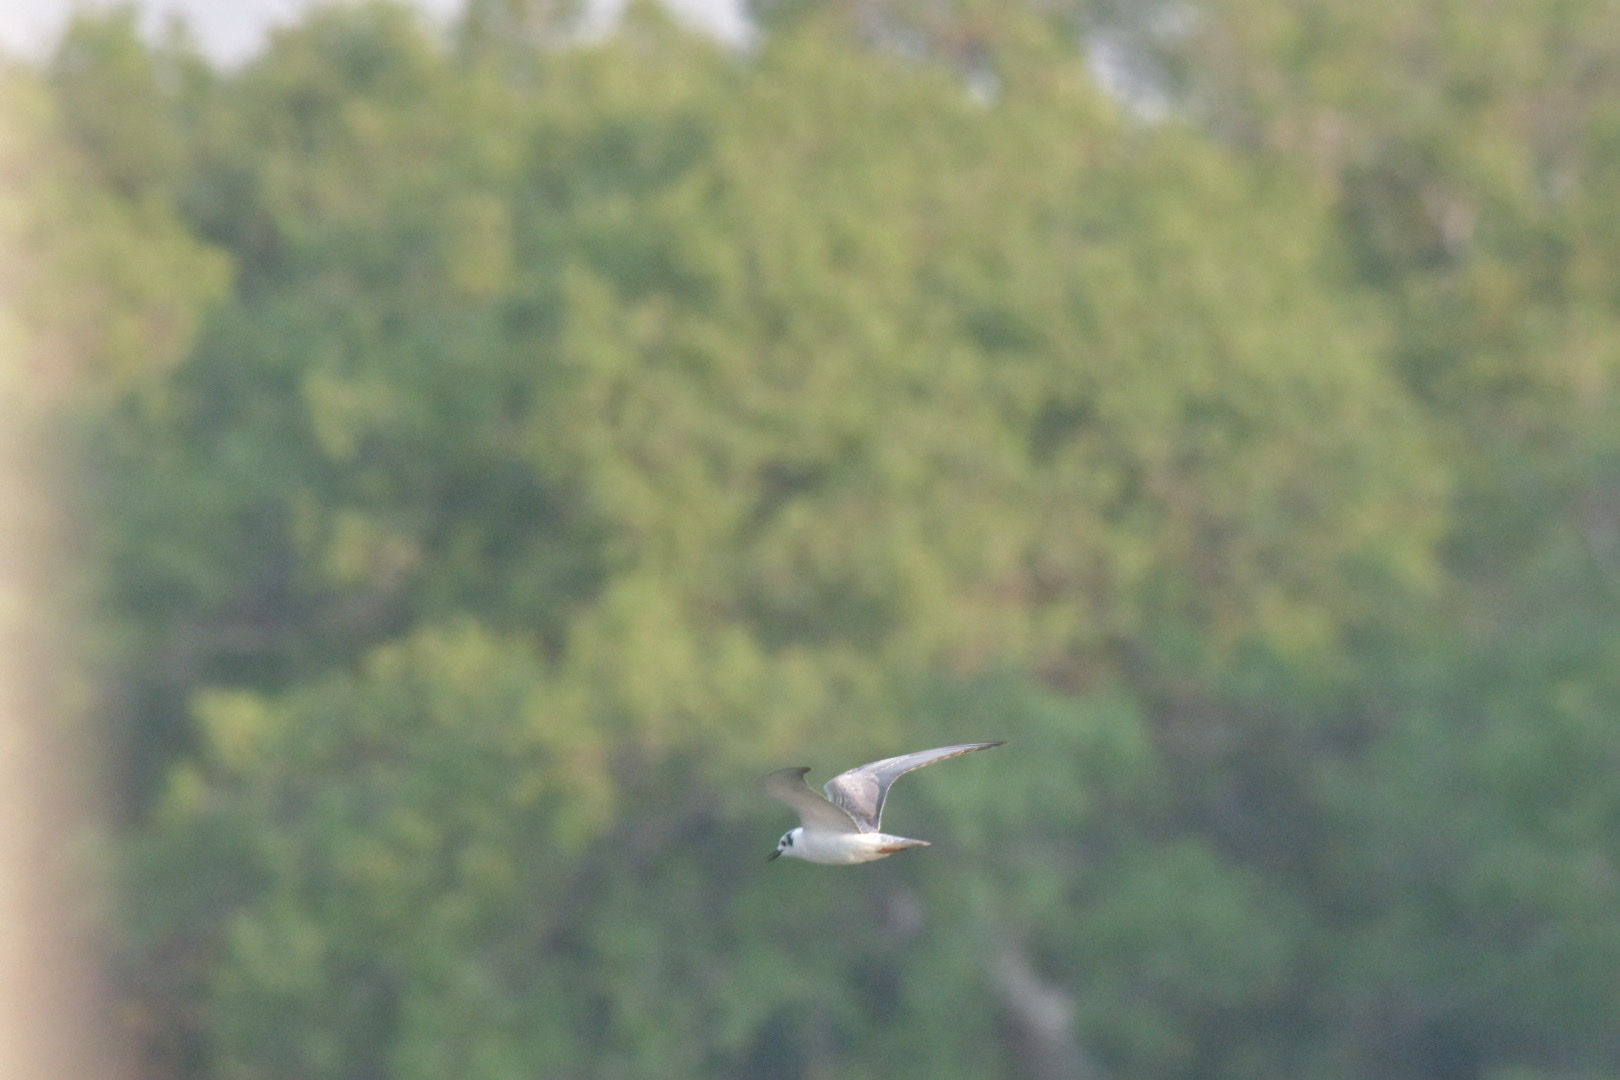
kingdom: Animalia
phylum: Chordata
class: Aves
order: Charadriiformes
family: Laridae
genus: Chlidonias
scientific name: Chlidonias leucopterus
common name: White-winged tern
